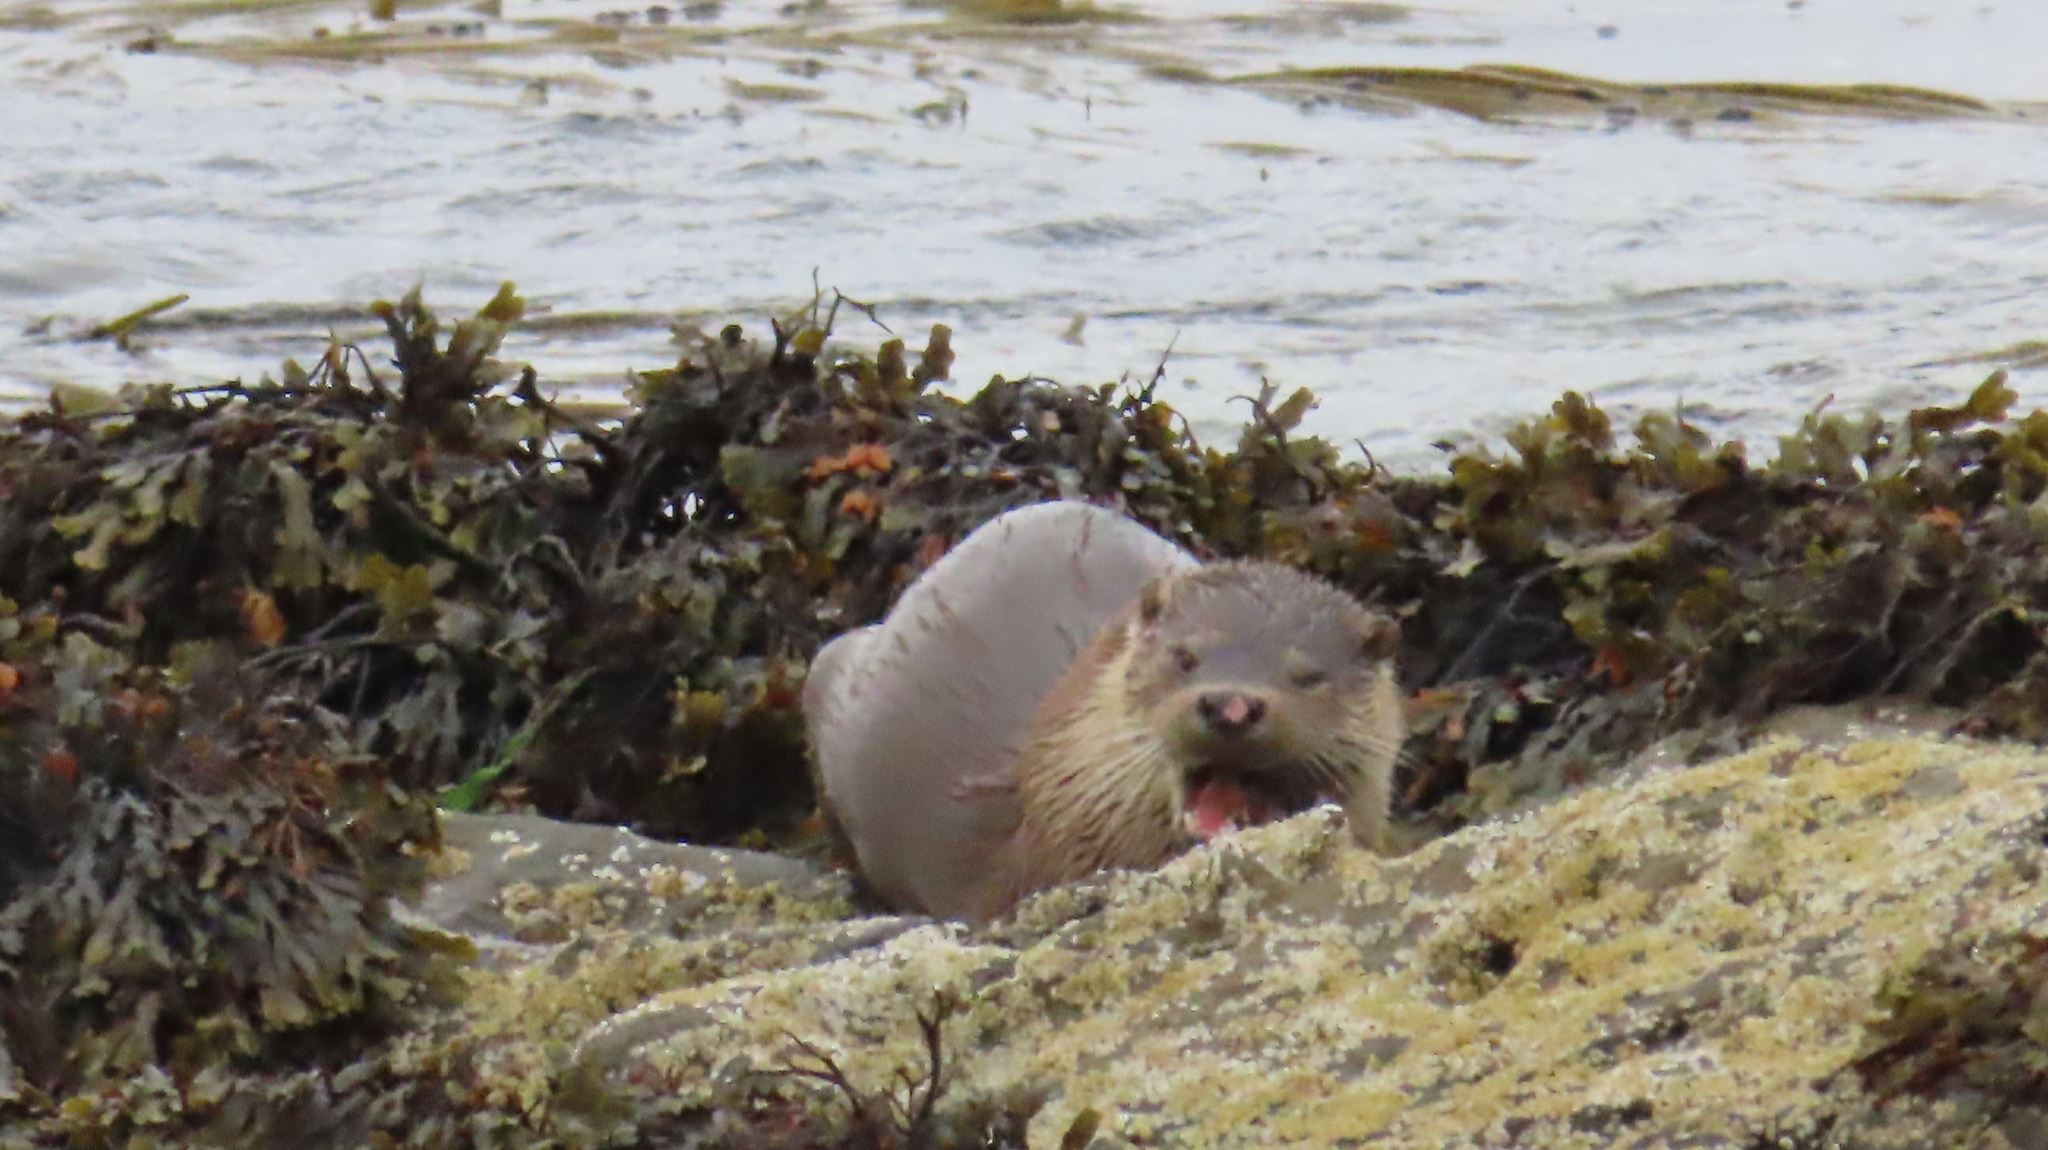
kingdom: Animalia
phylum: Chordata
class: Mammalia
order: Carnivora
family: Mustelidae
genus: Lutra
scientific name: Lutra lutra
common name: European otter
